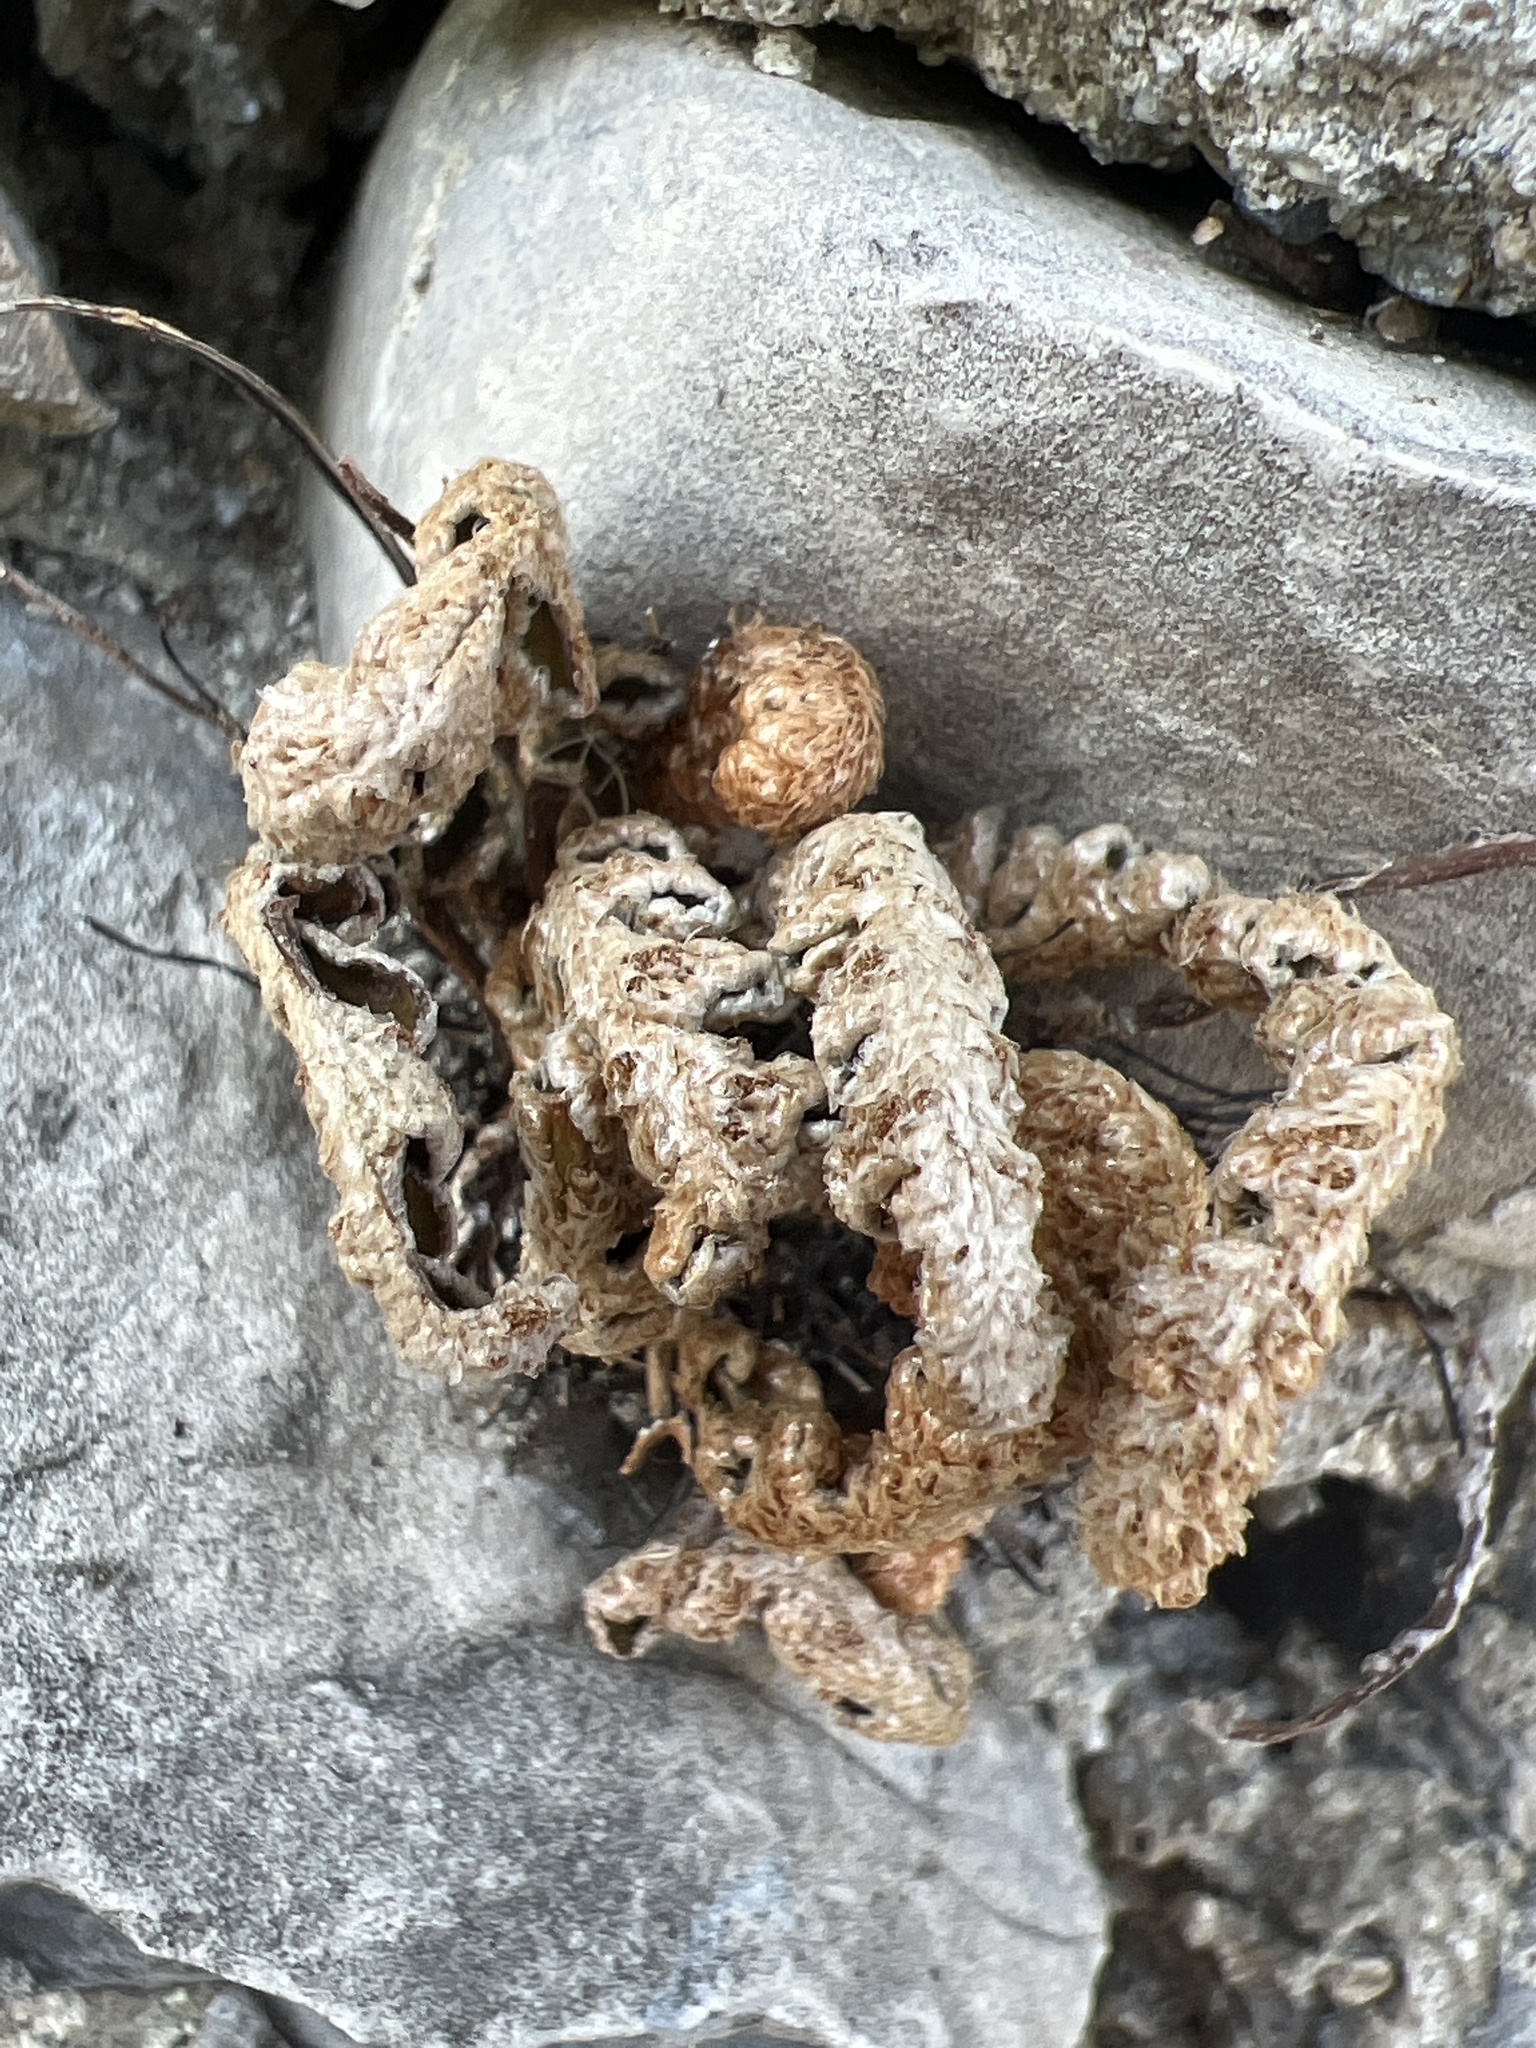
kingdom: Plantae
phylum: Tracheophyta
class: Polypodiopsida
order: Polypodiales
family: Aspleniaceae
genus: Asplenium
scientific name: Asplenium ceterach
